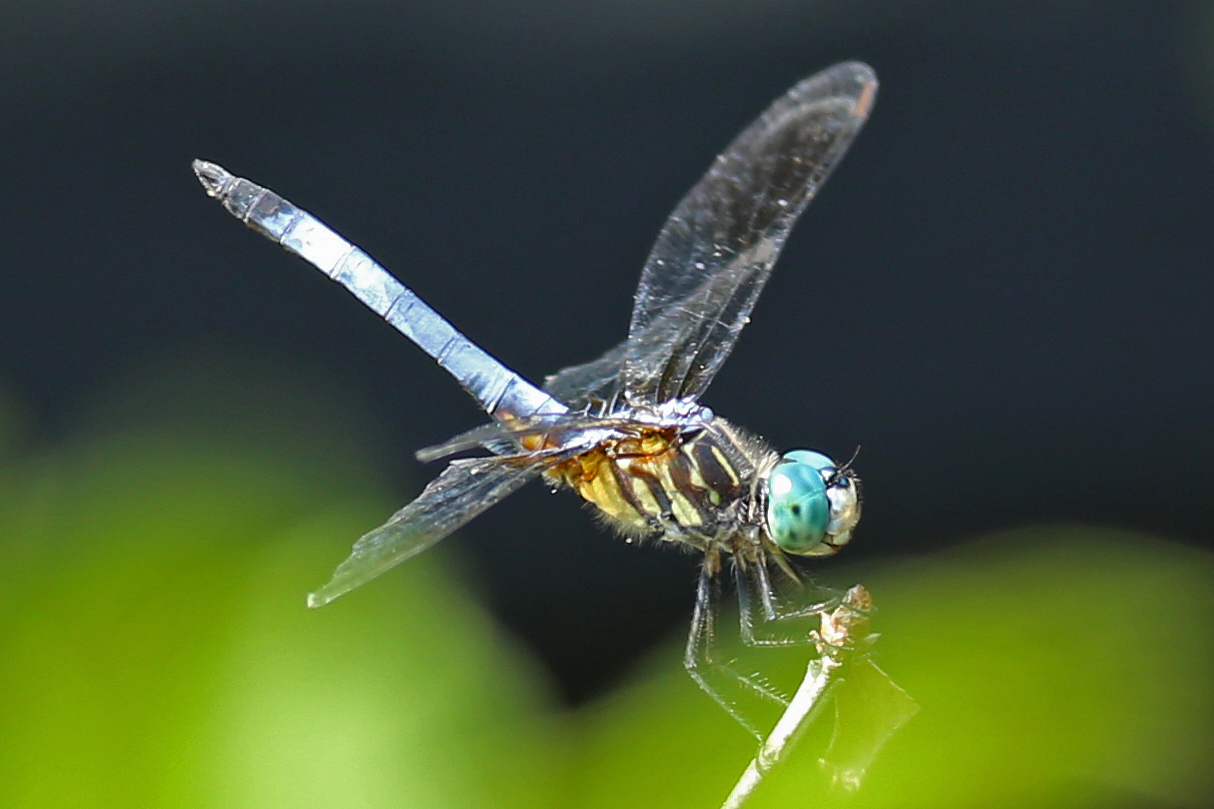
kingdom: Animalia
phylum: Arthropoda
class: Insecta
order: Odonata
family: Libellulidae
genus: Pachydiplax
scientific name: Pachydiplax longipennis
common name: Blue dasher
